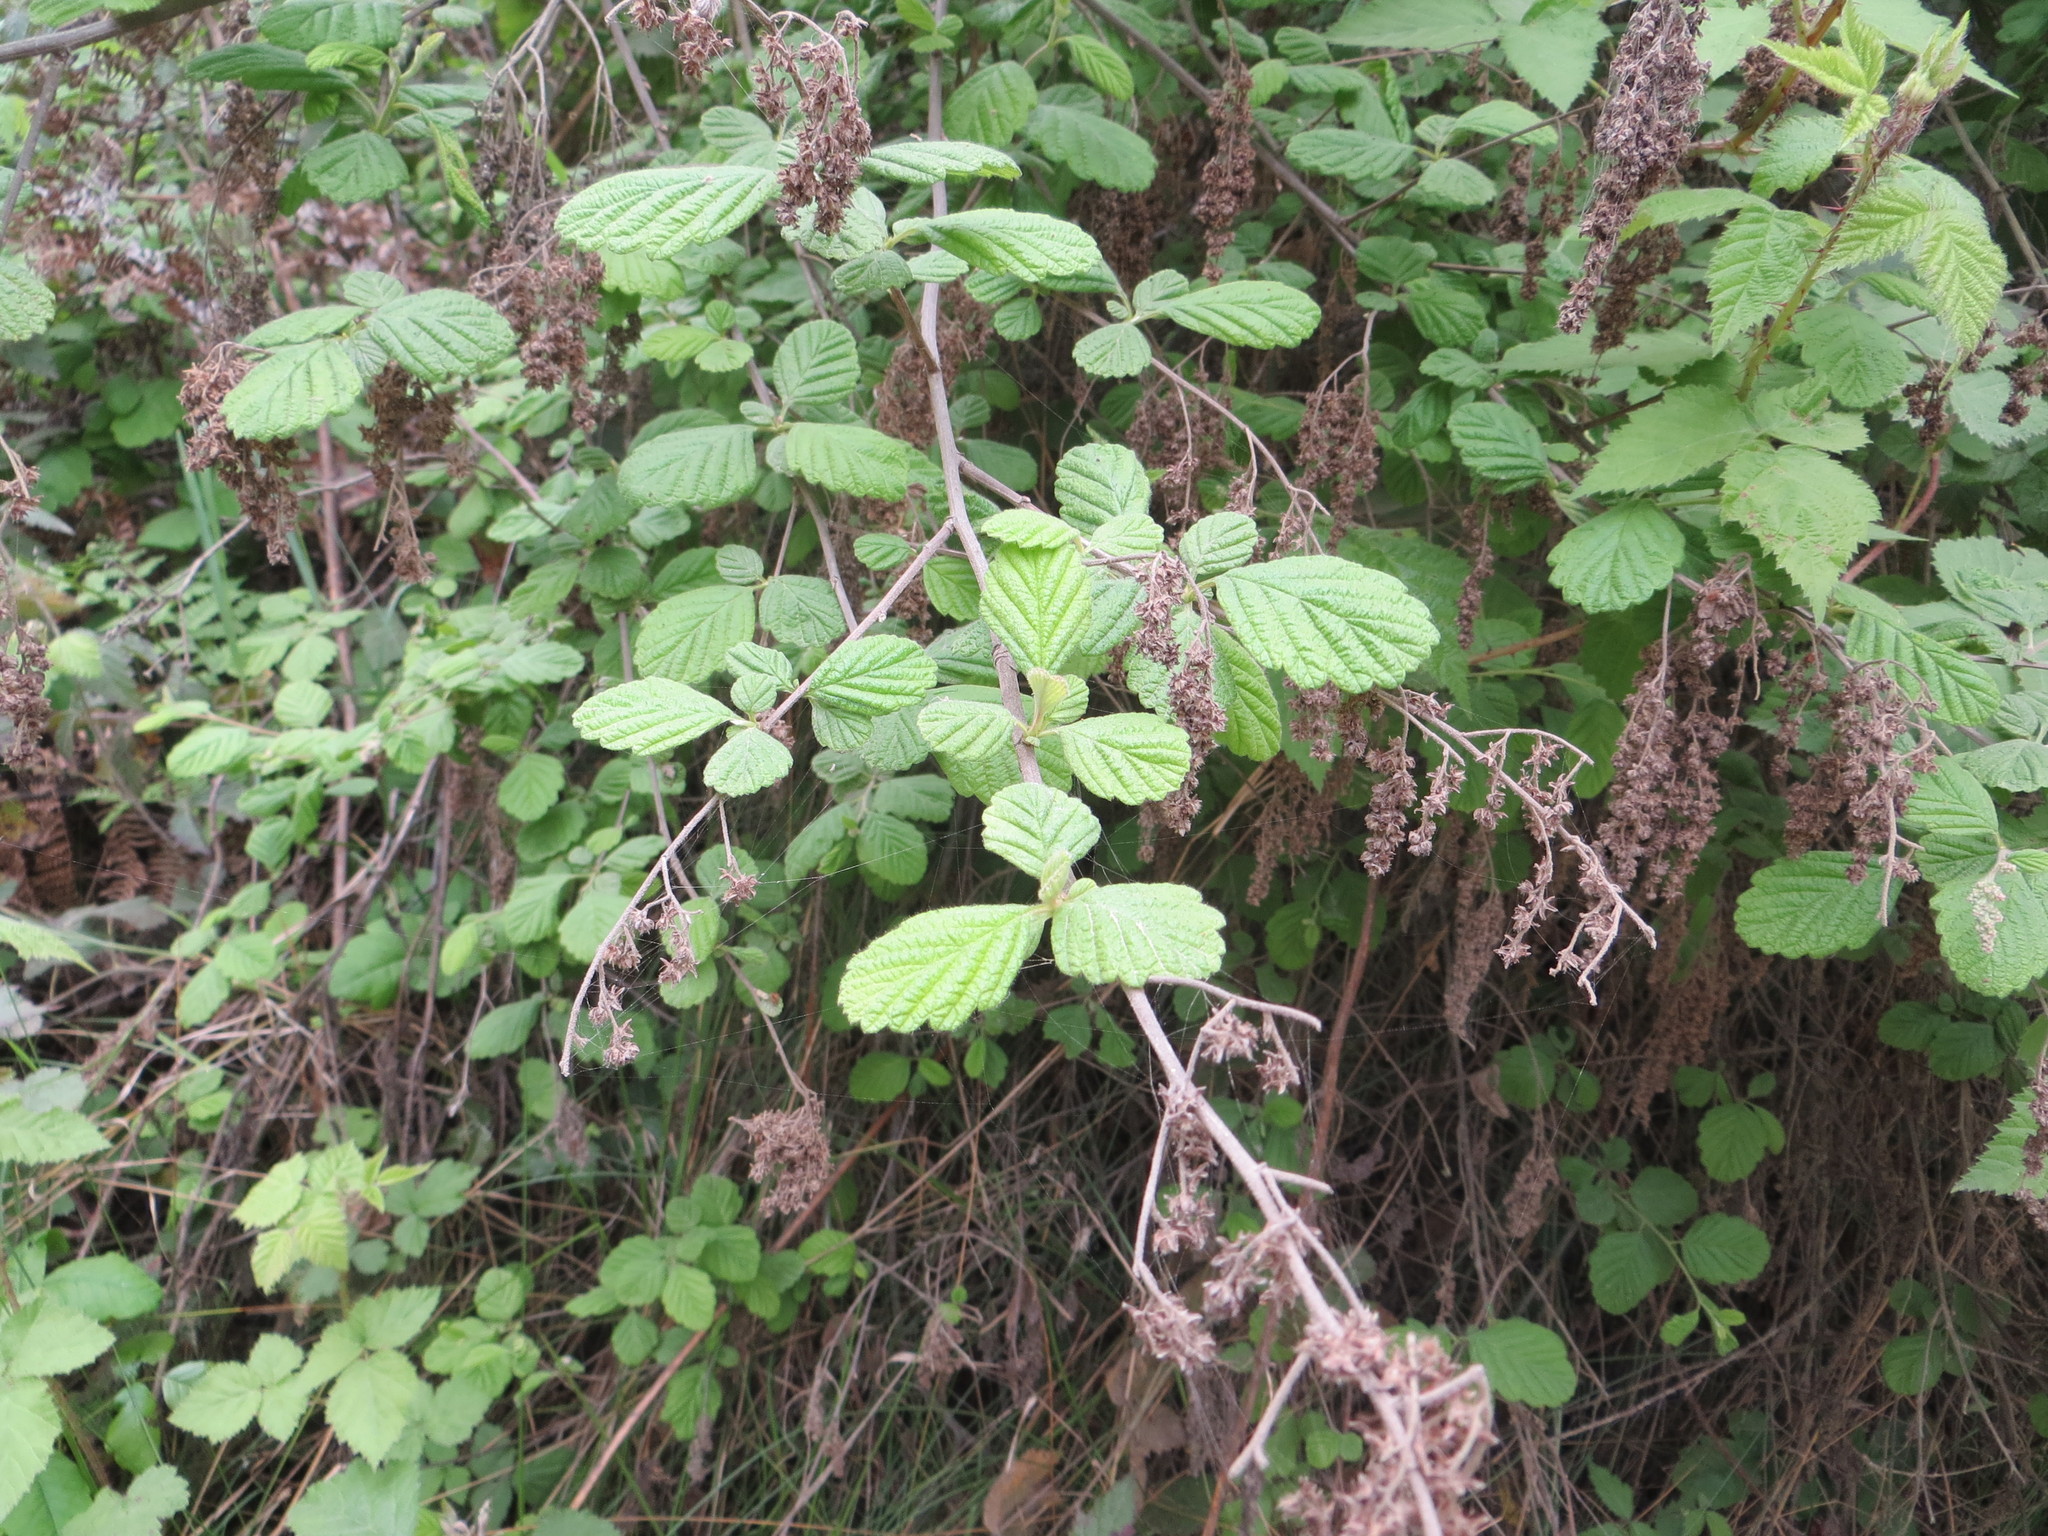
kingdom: Plantae
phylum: Tracheophyta
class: Magnoliopsida
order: Rosales
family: Rosaceae
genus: Holodiscus
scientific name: Holodiscus discolor
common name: Oceanspray
